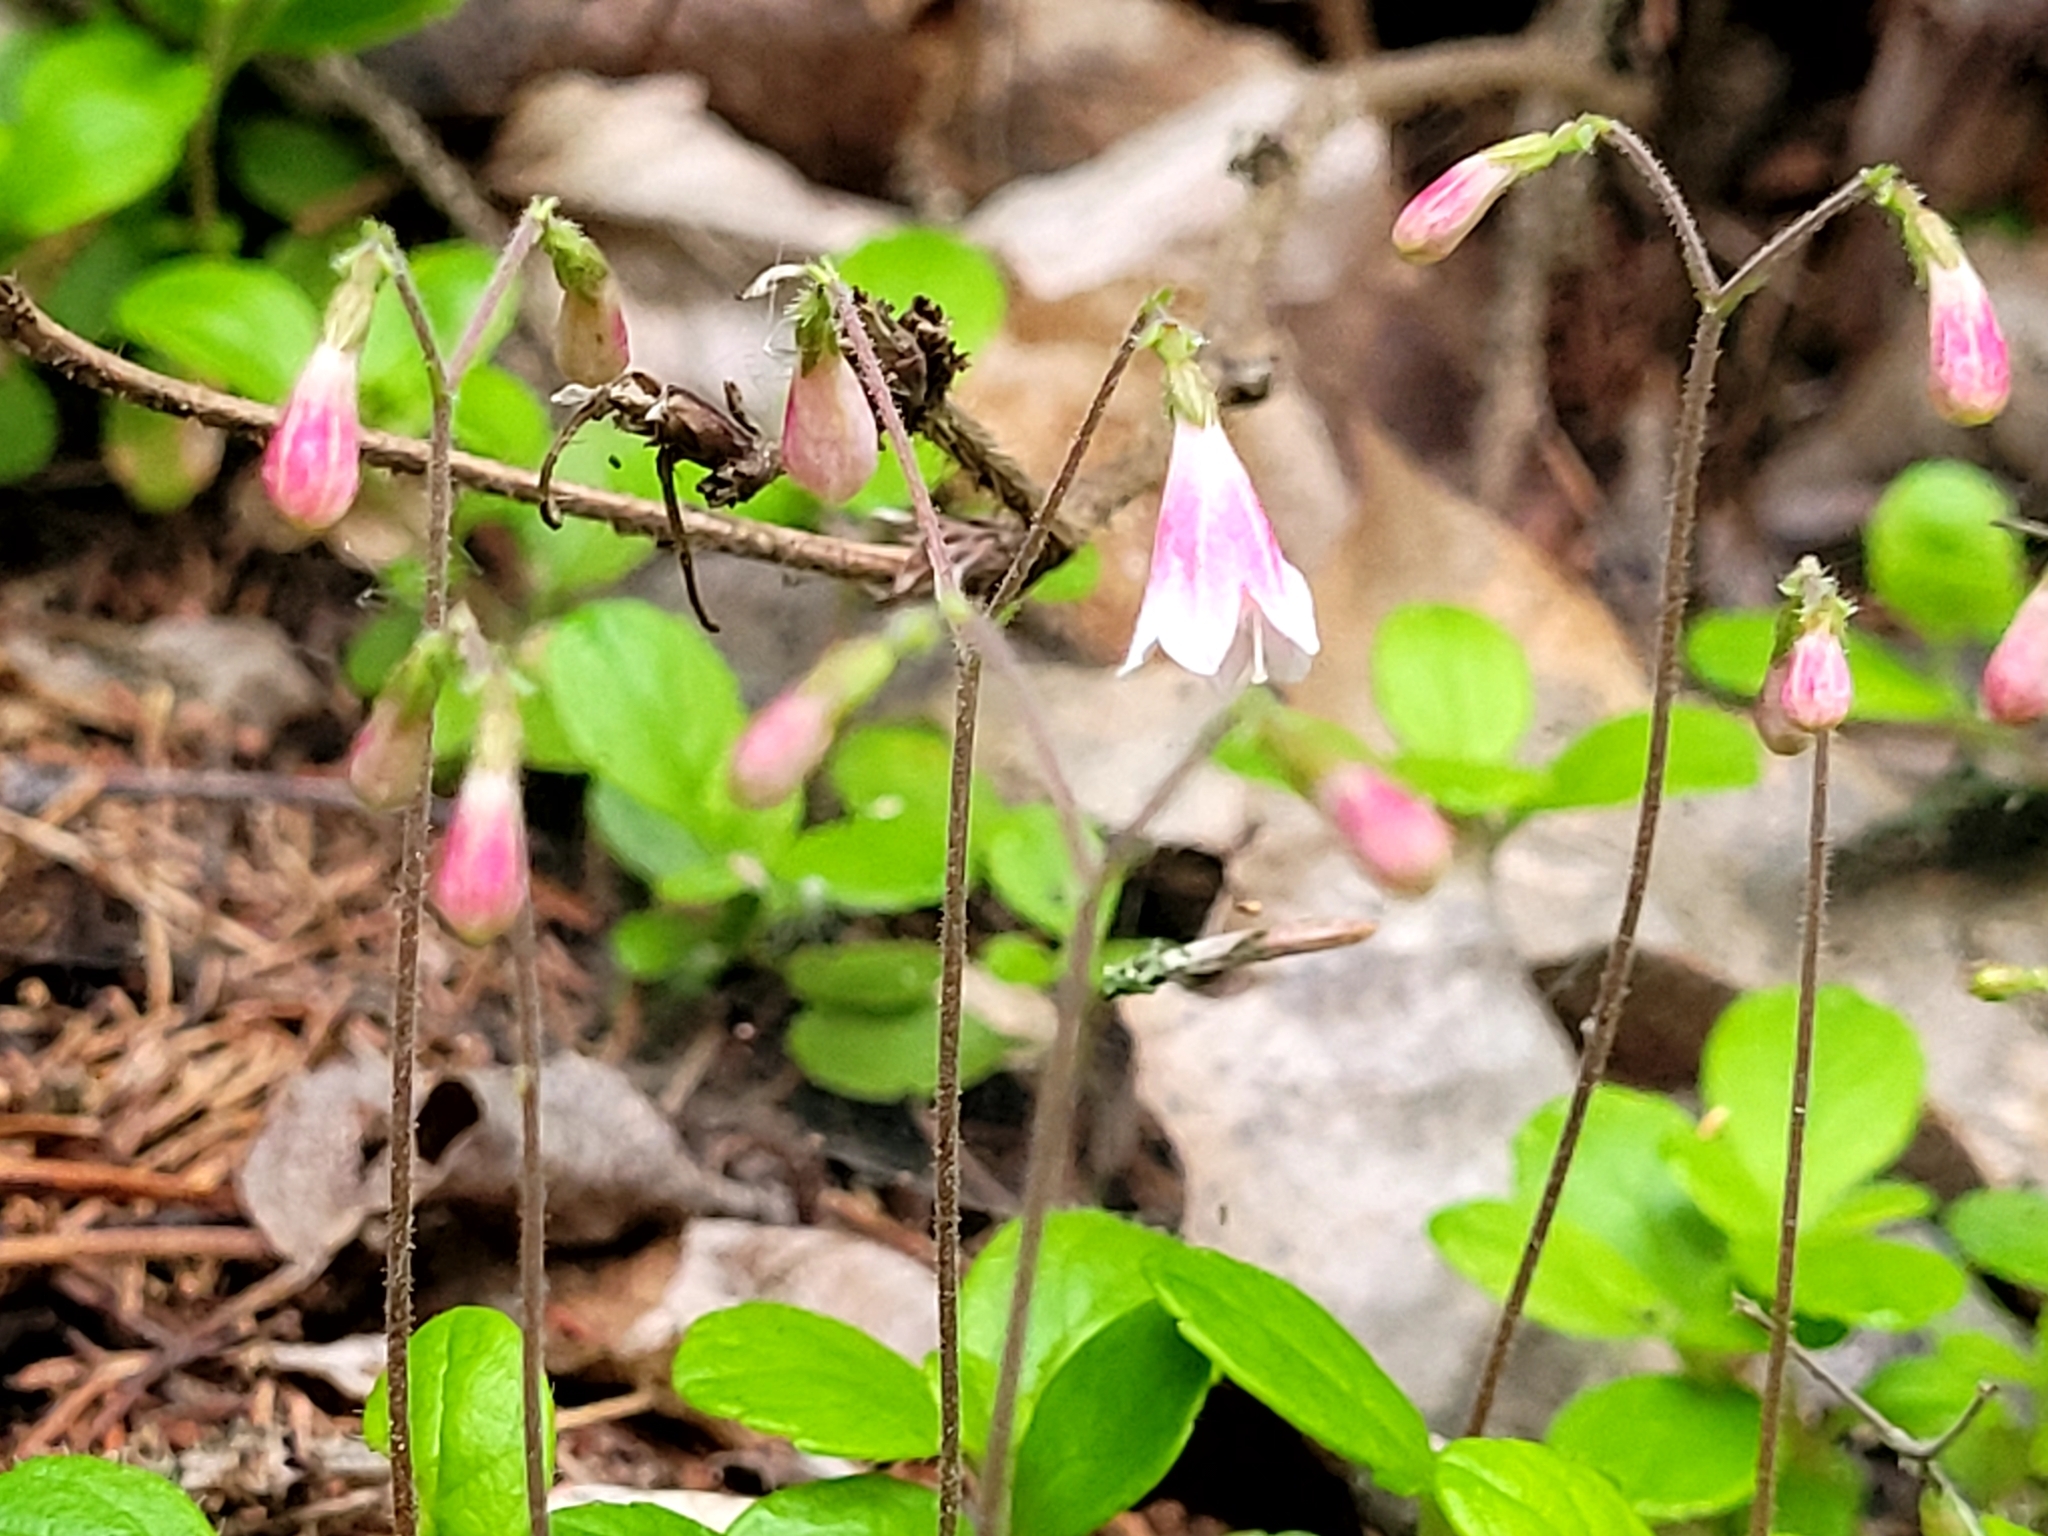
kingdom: Plantae
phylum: Tracheophyta
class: Magnoliopsida
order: Dipsacales
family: Caprifoliaceae
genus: Linnaea
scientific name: Linnaea borealis
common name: Twinflower
